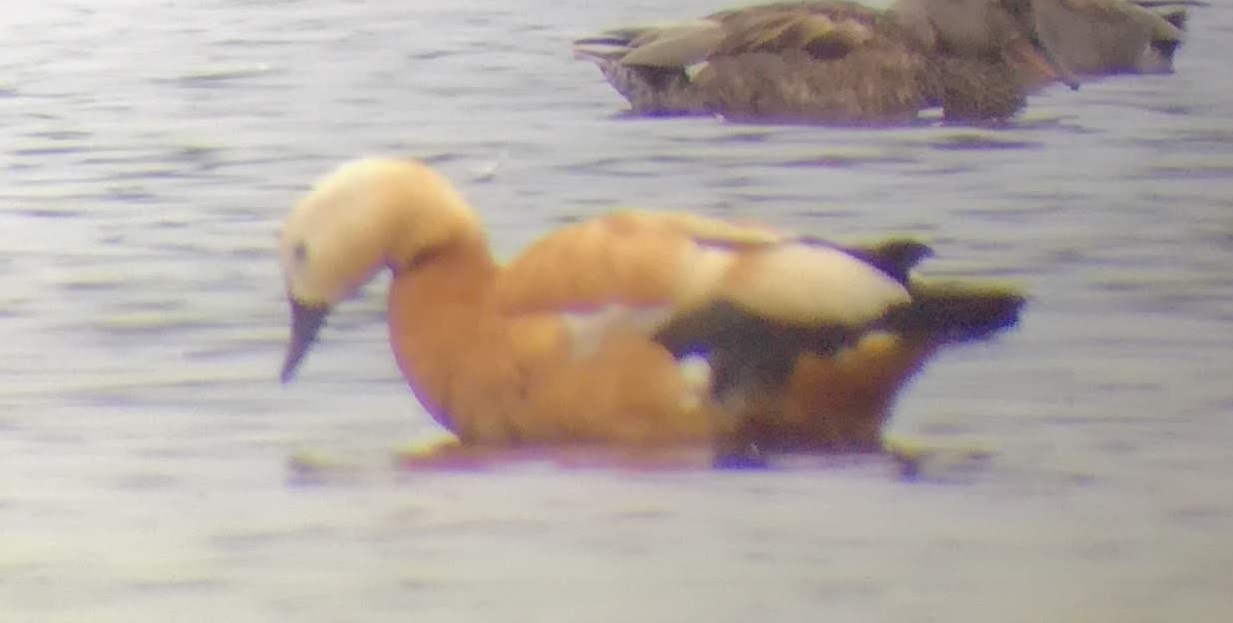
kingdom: Animalia
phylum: Chordata
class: Aves
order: Anseriformes
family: Anatidae
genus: Tadorna
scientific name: Tadorna ferruginea
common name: Ruddy shelduck
